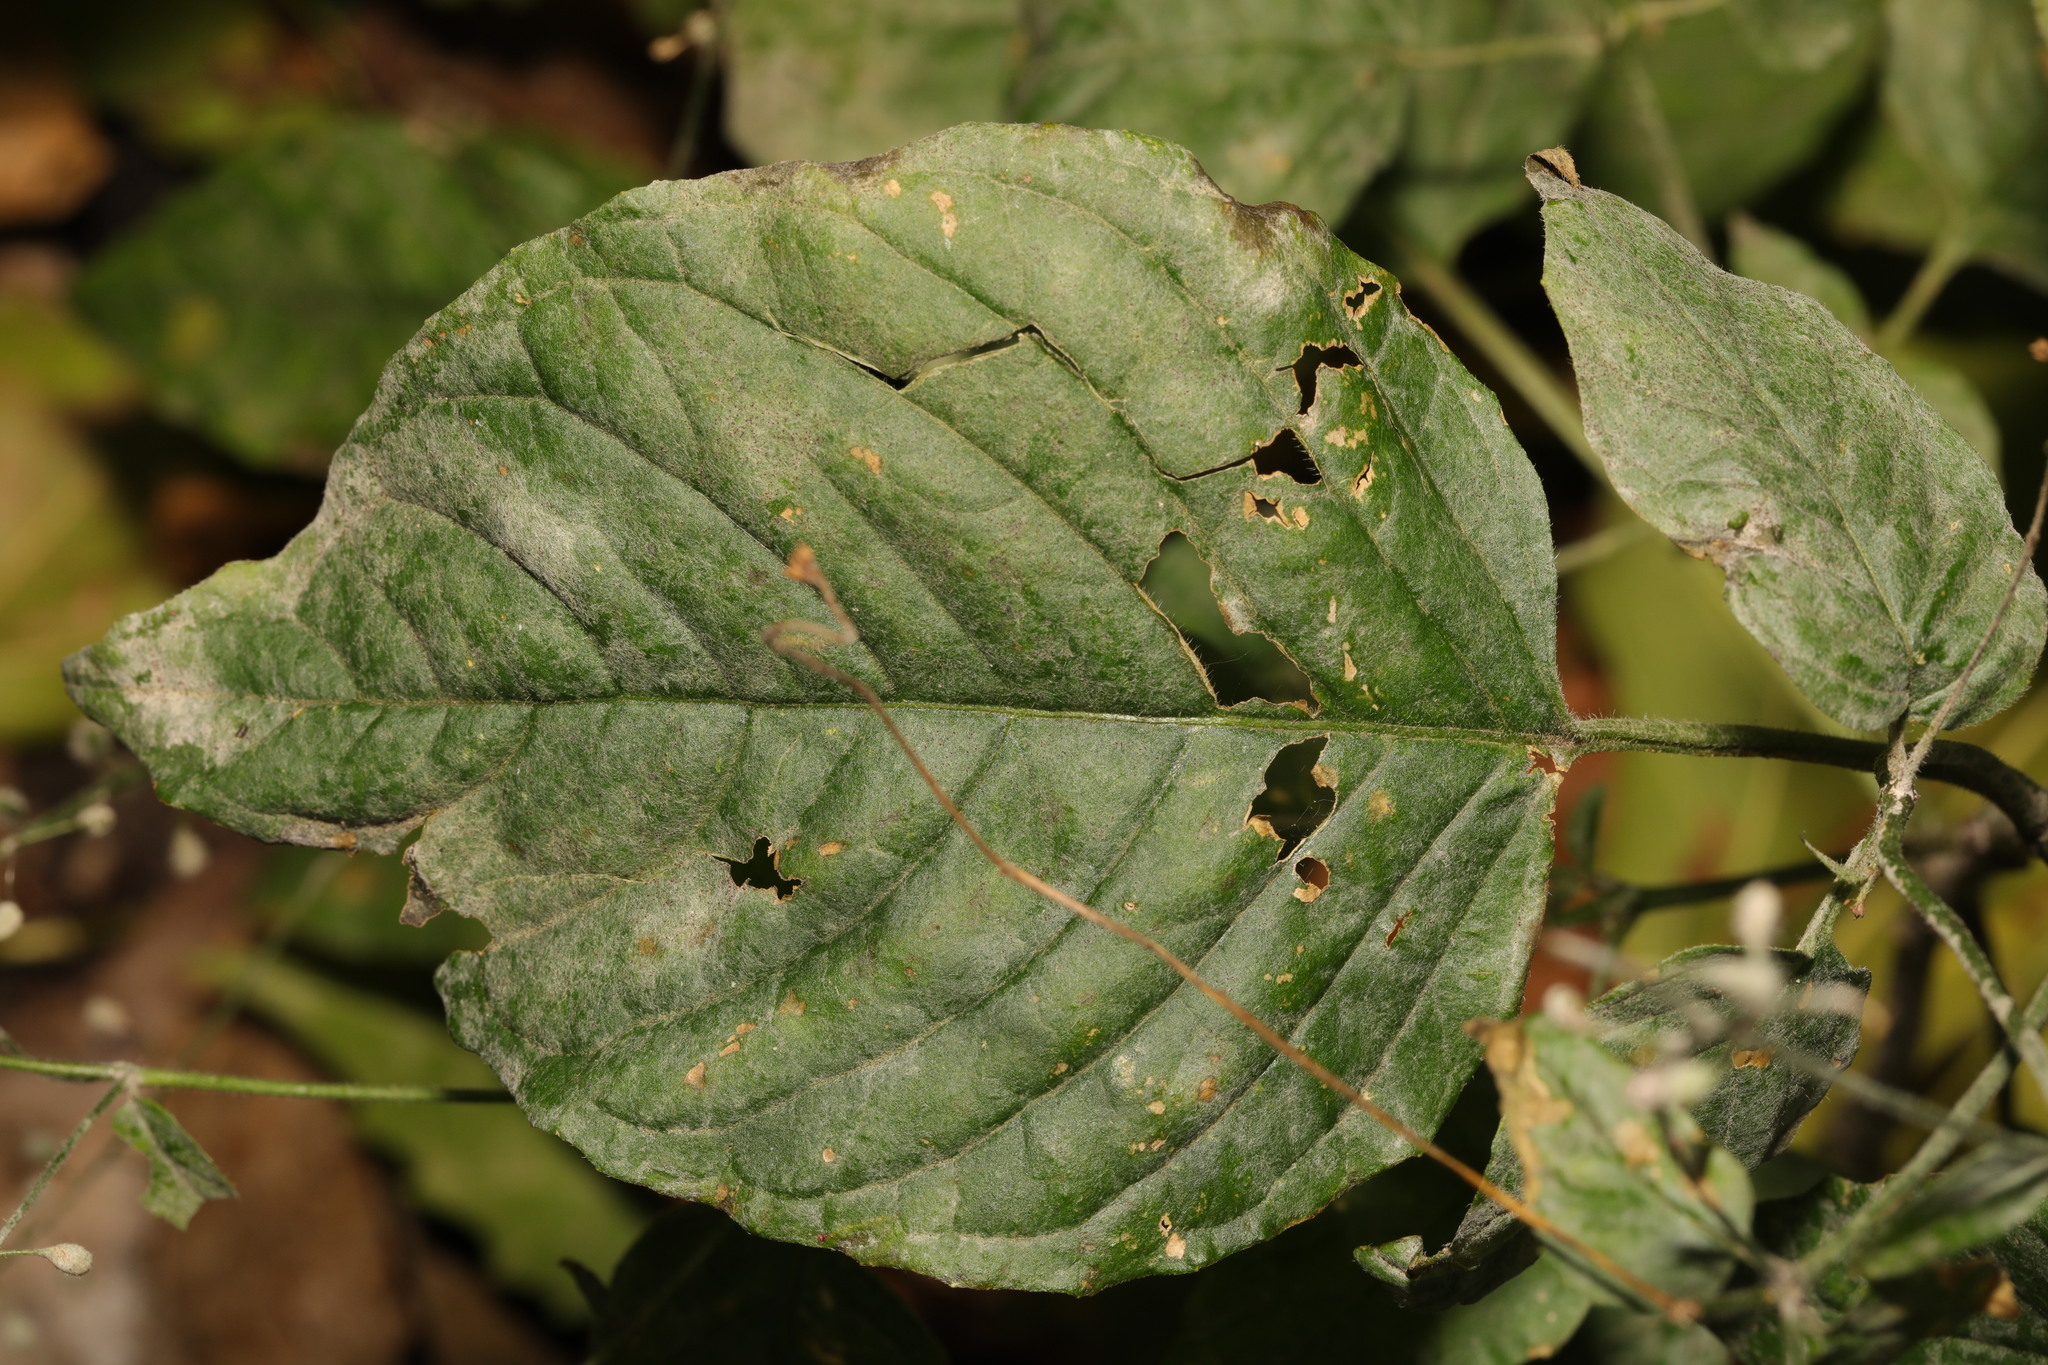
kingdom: Fungi
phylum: Ascomycota
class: Leotiomycetes
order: Helotiales
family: Erysiphaceae
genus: Erysiphe
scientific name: Erysiphe circaeae
